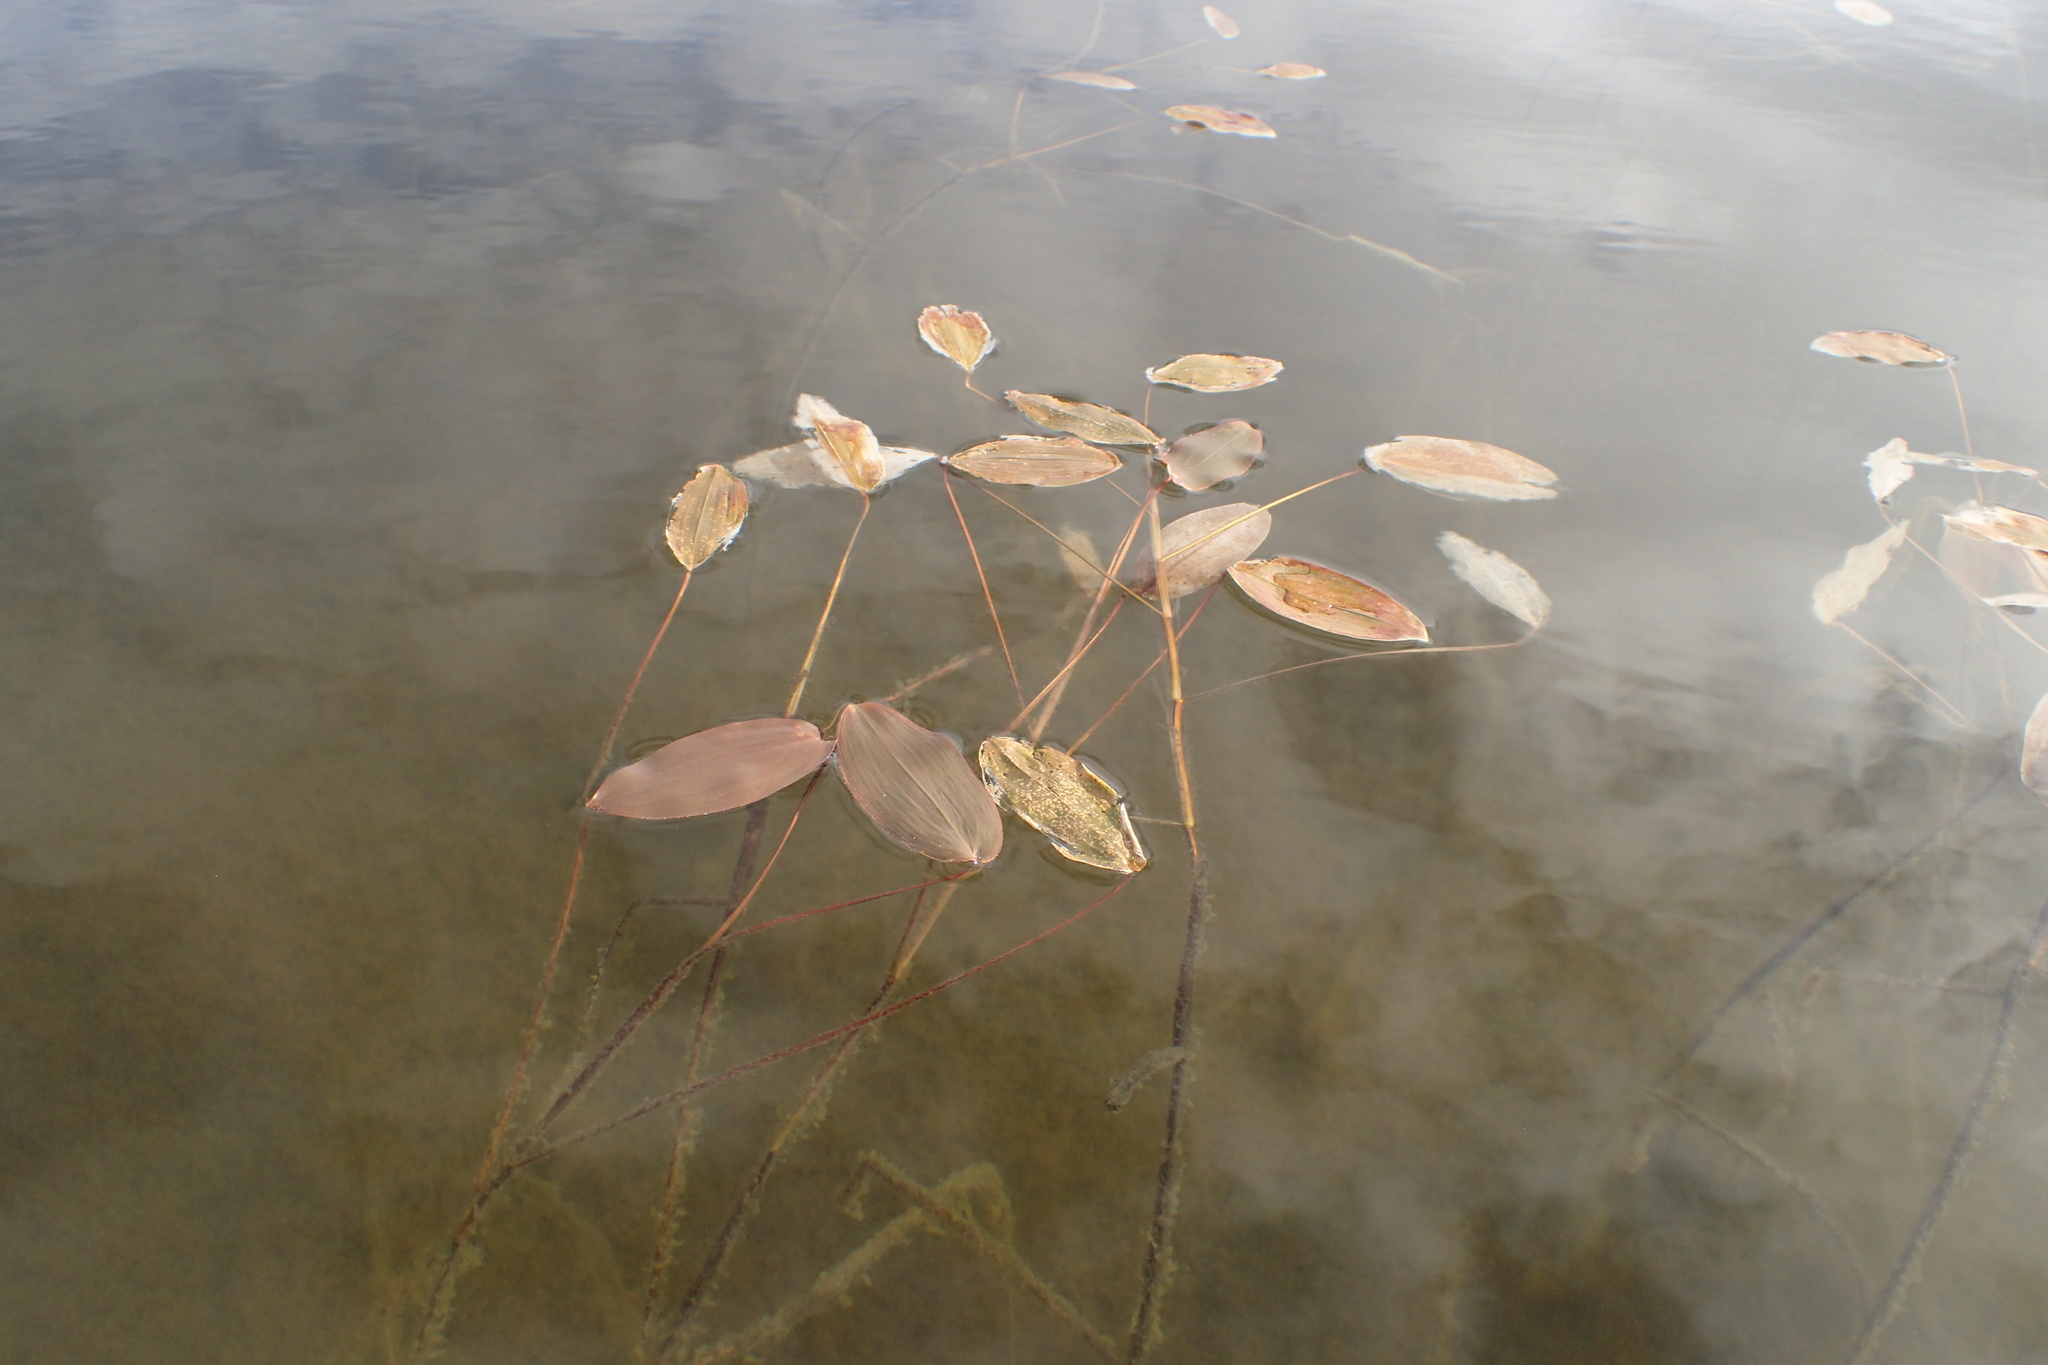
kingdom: Plantae
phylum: Tracheophyta
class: Liliopsida
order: Alismatales
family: Potamogetonaceae
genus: Potamogeton
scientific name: Potamogeton natans
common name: Broad-leaved pondweed
